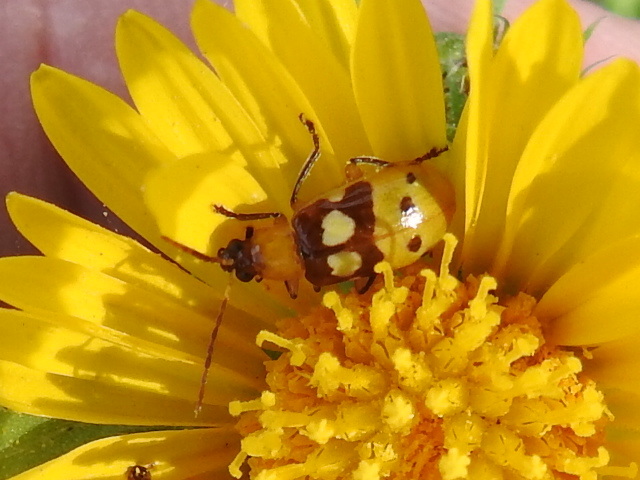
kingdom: Animalia
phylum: Arthropoda
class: Insecta
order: Coleoptera
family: Chrysomelidae
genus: Paranapiacaba
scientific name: Paranapiacaba connexa
